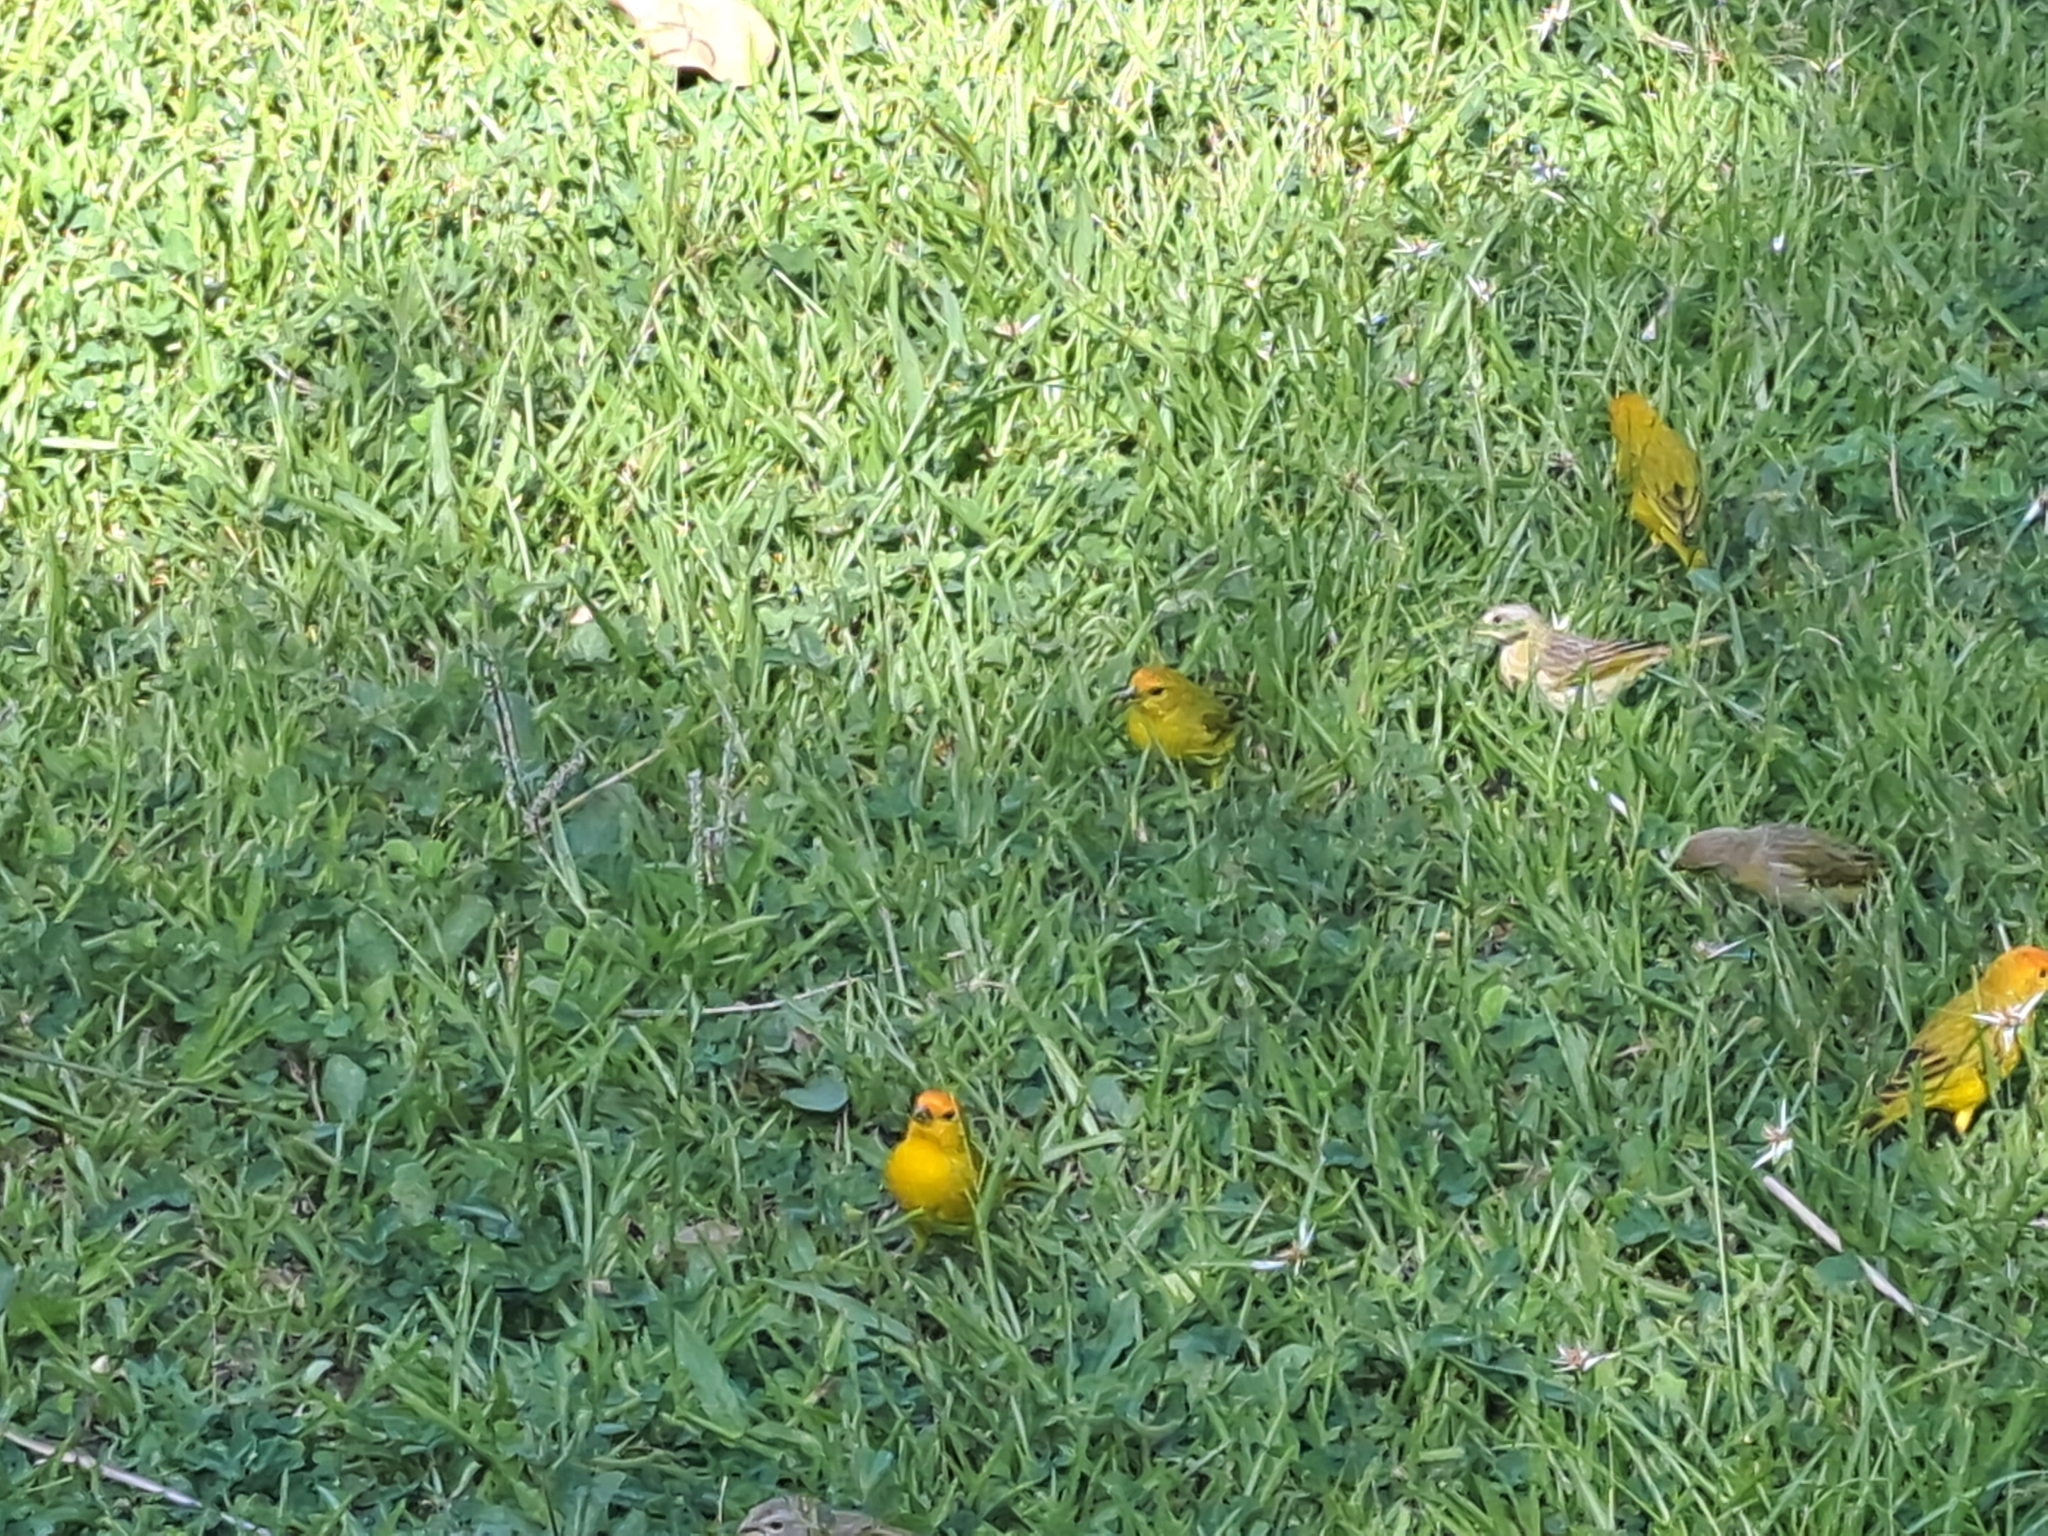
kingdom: Animalia
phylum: Chordata
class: Aves
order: Passeriformes
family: Thraupidae
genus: Sicalis
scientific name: Sicalis flaveola
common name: Saffron finch
